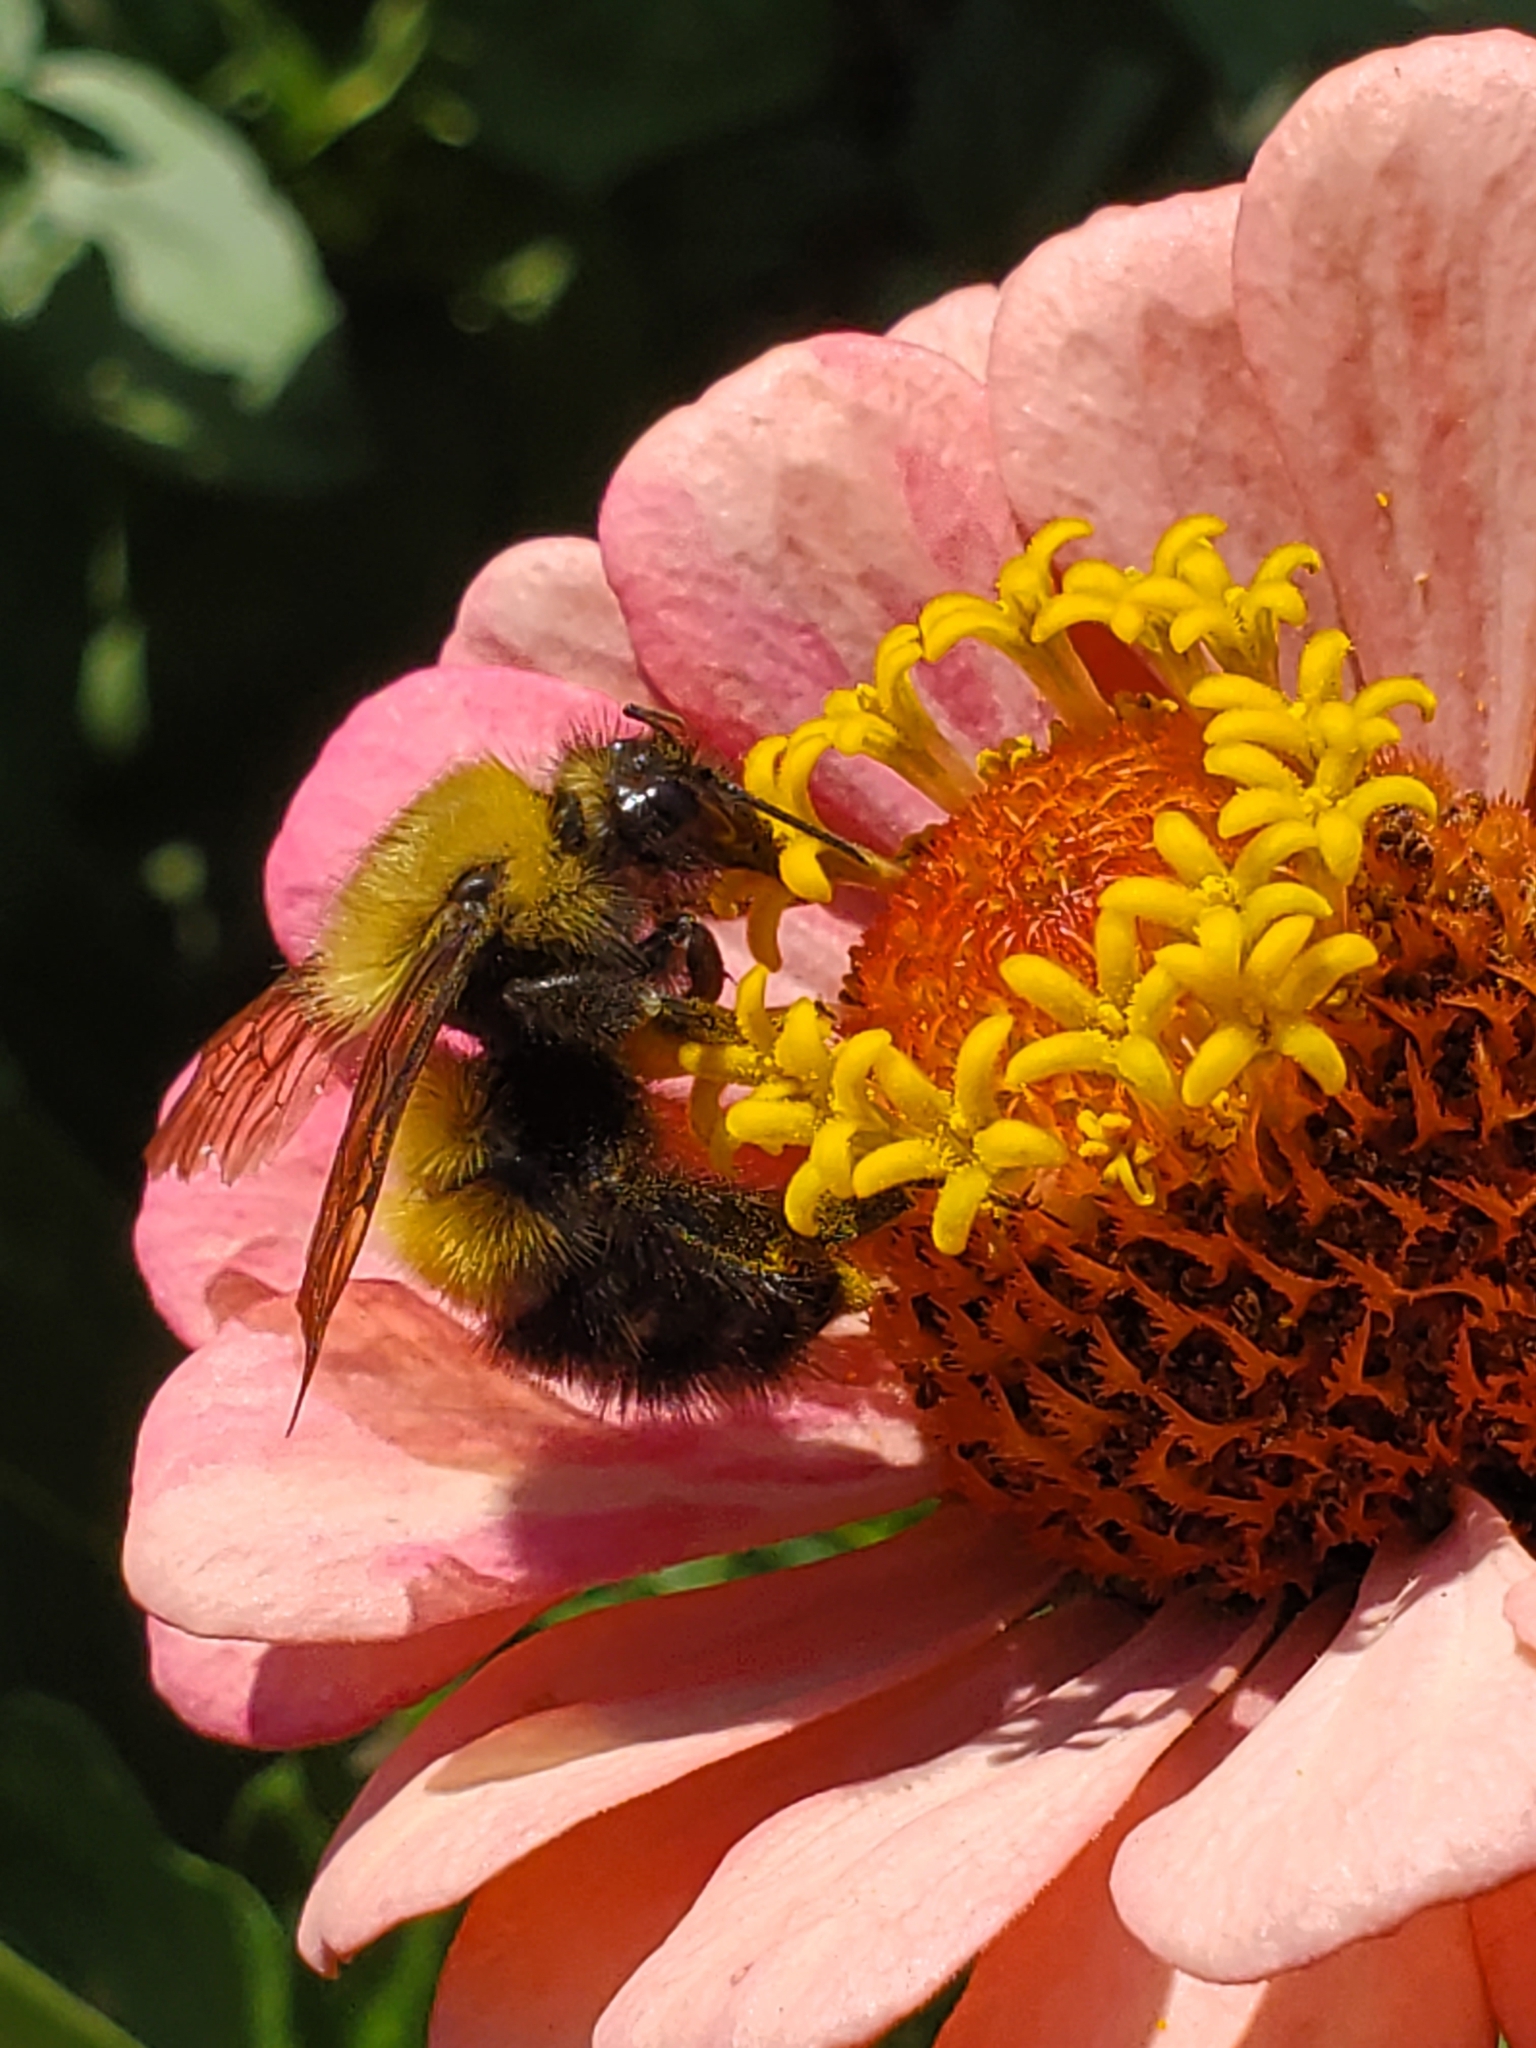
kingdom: Animalia
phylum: Arthropoda
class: Insecta
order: Hymenoptera
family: Apidae
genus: Bombus
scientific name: Bombus perplexus
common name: Confusing bumble bee
